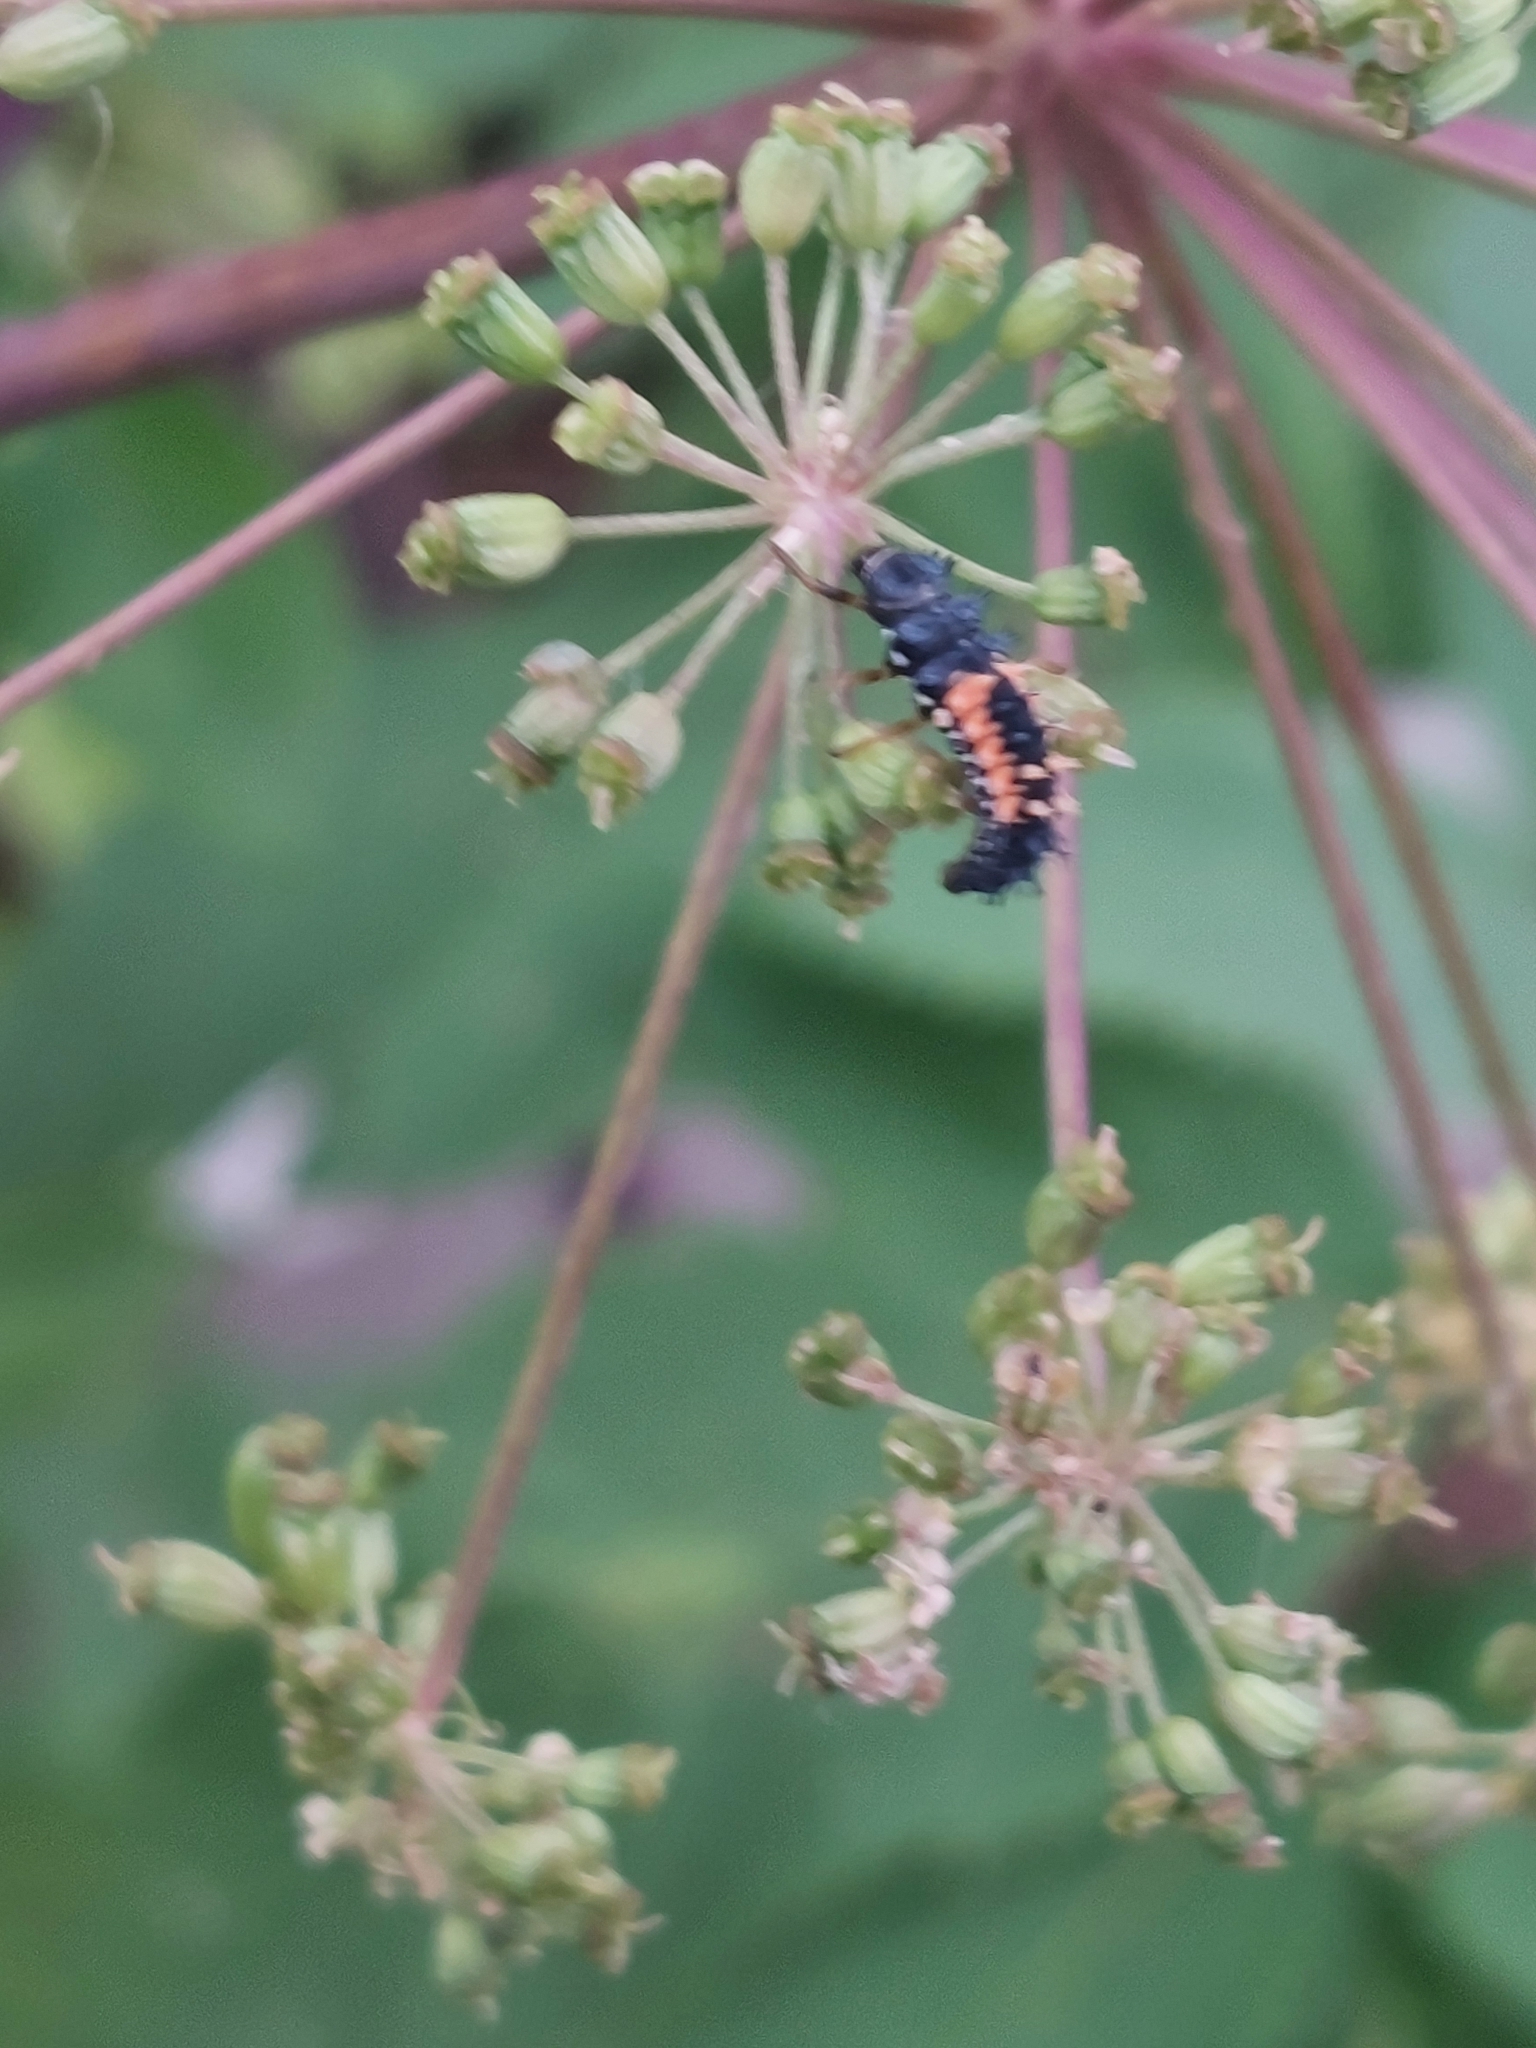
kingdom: Animalia
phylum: Arthropoda
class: Insecta
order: Coleoptera
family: Coccinellidae
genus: Harmonia
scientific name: Harmonia axyridis
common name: Harlequin ladybird
